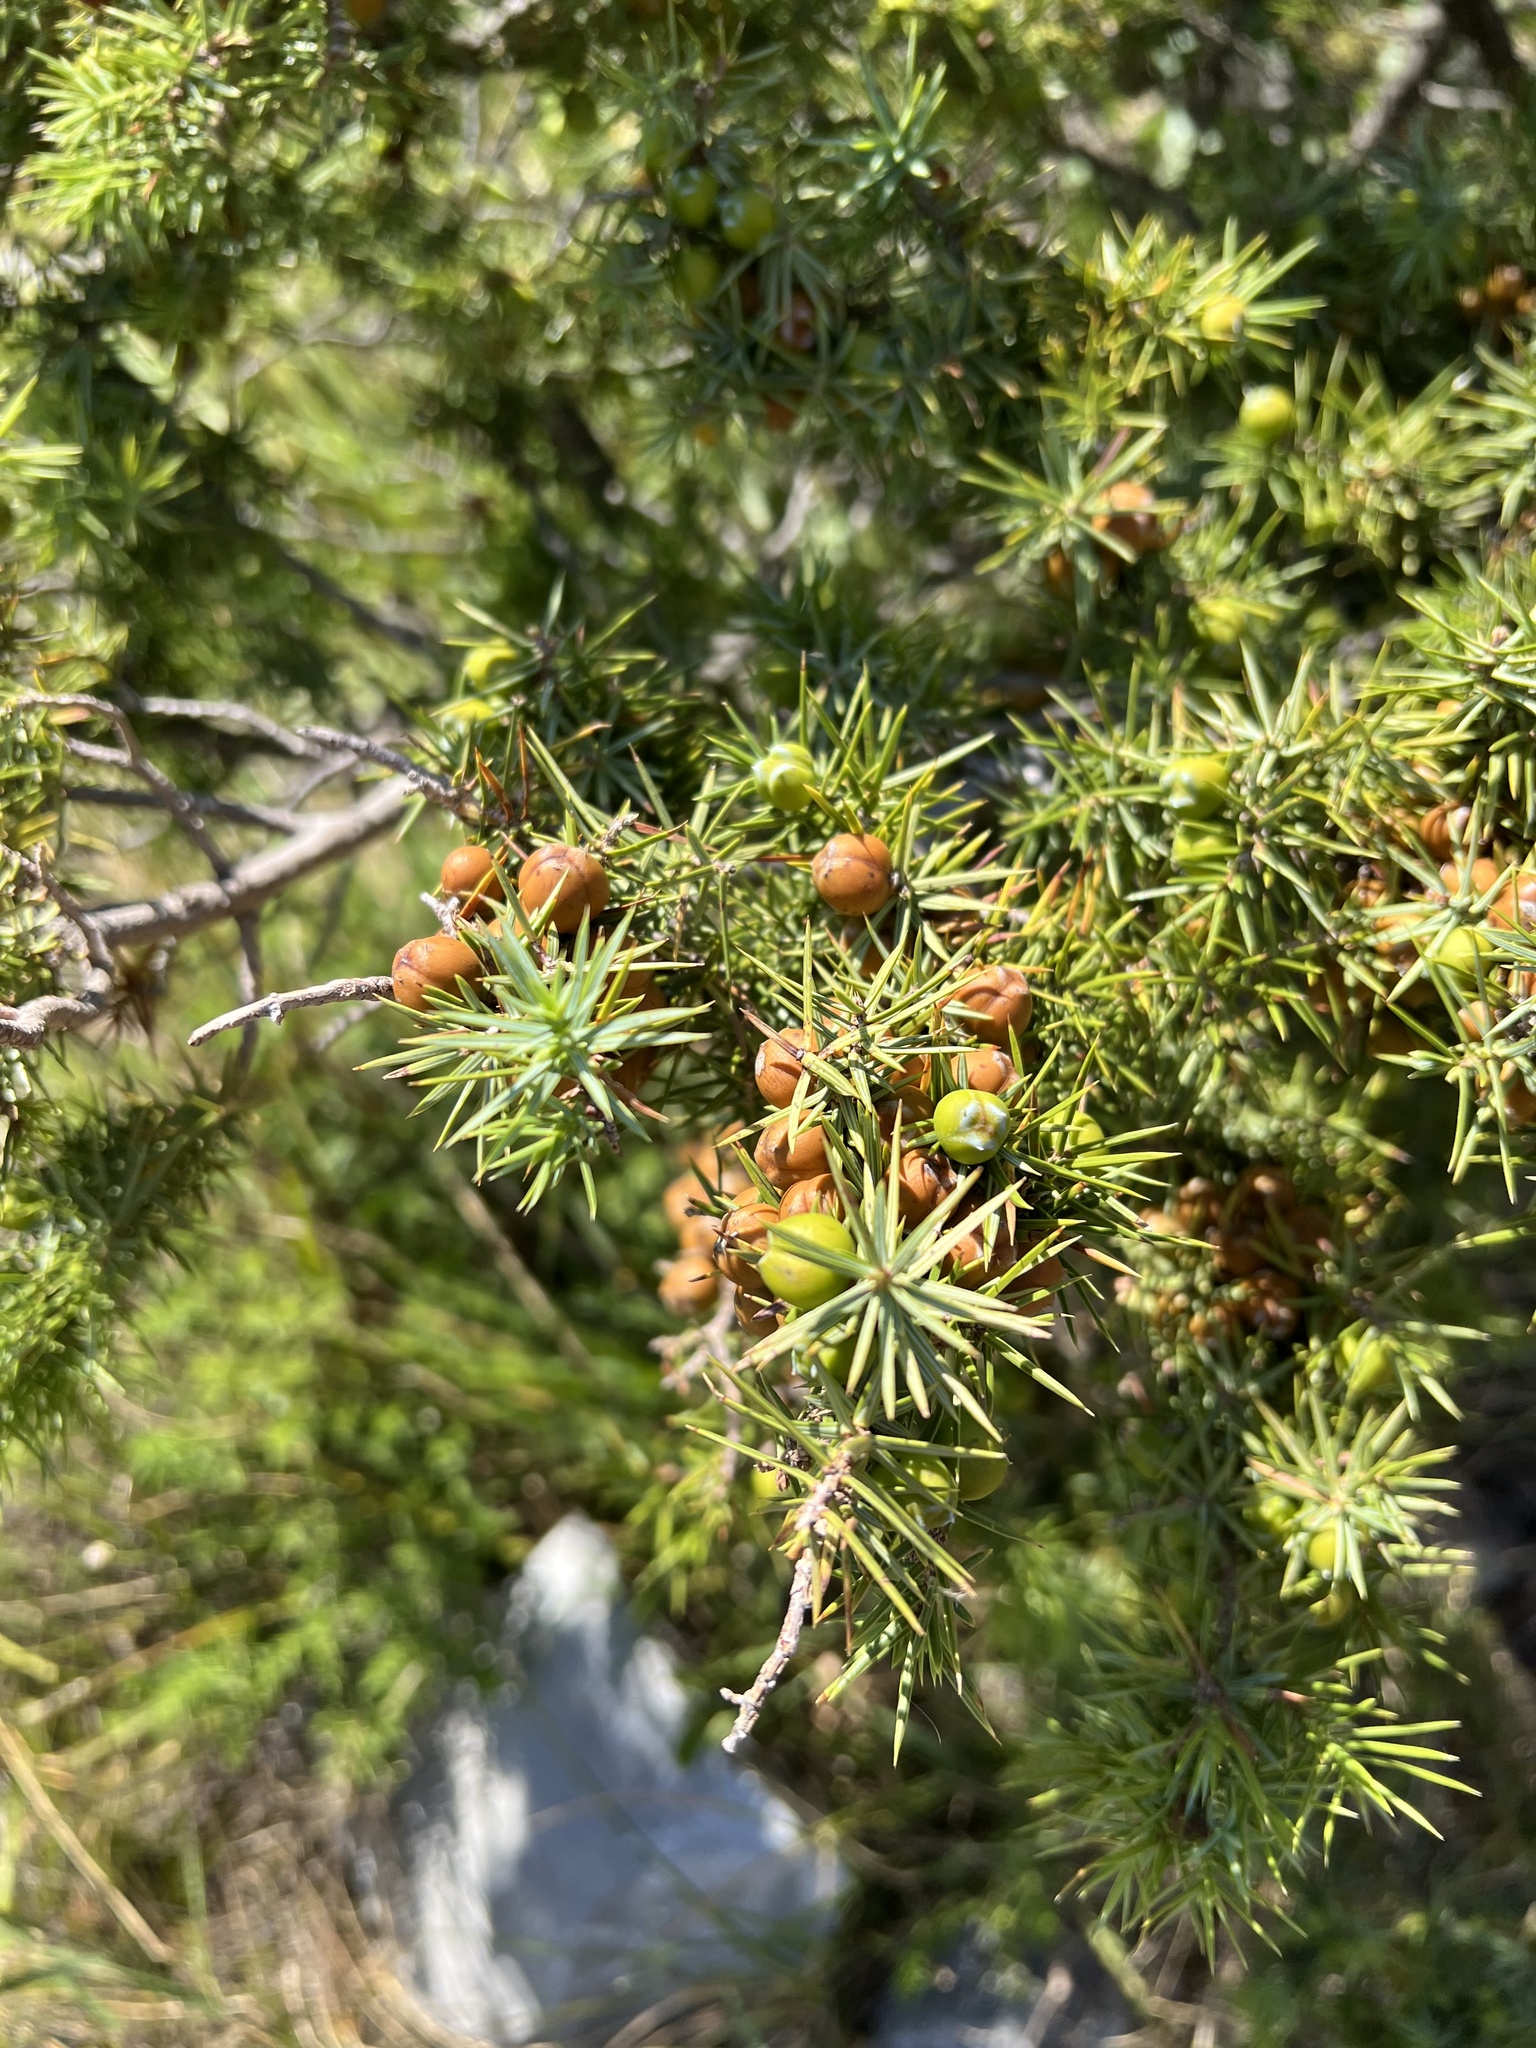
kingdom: Plantae
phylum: Tracheophyta
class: Pinopsida
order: Pinales
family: Cupressaceae
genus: Juniperus
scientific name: Juniperus oxycedrus
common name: Prickly juniper
